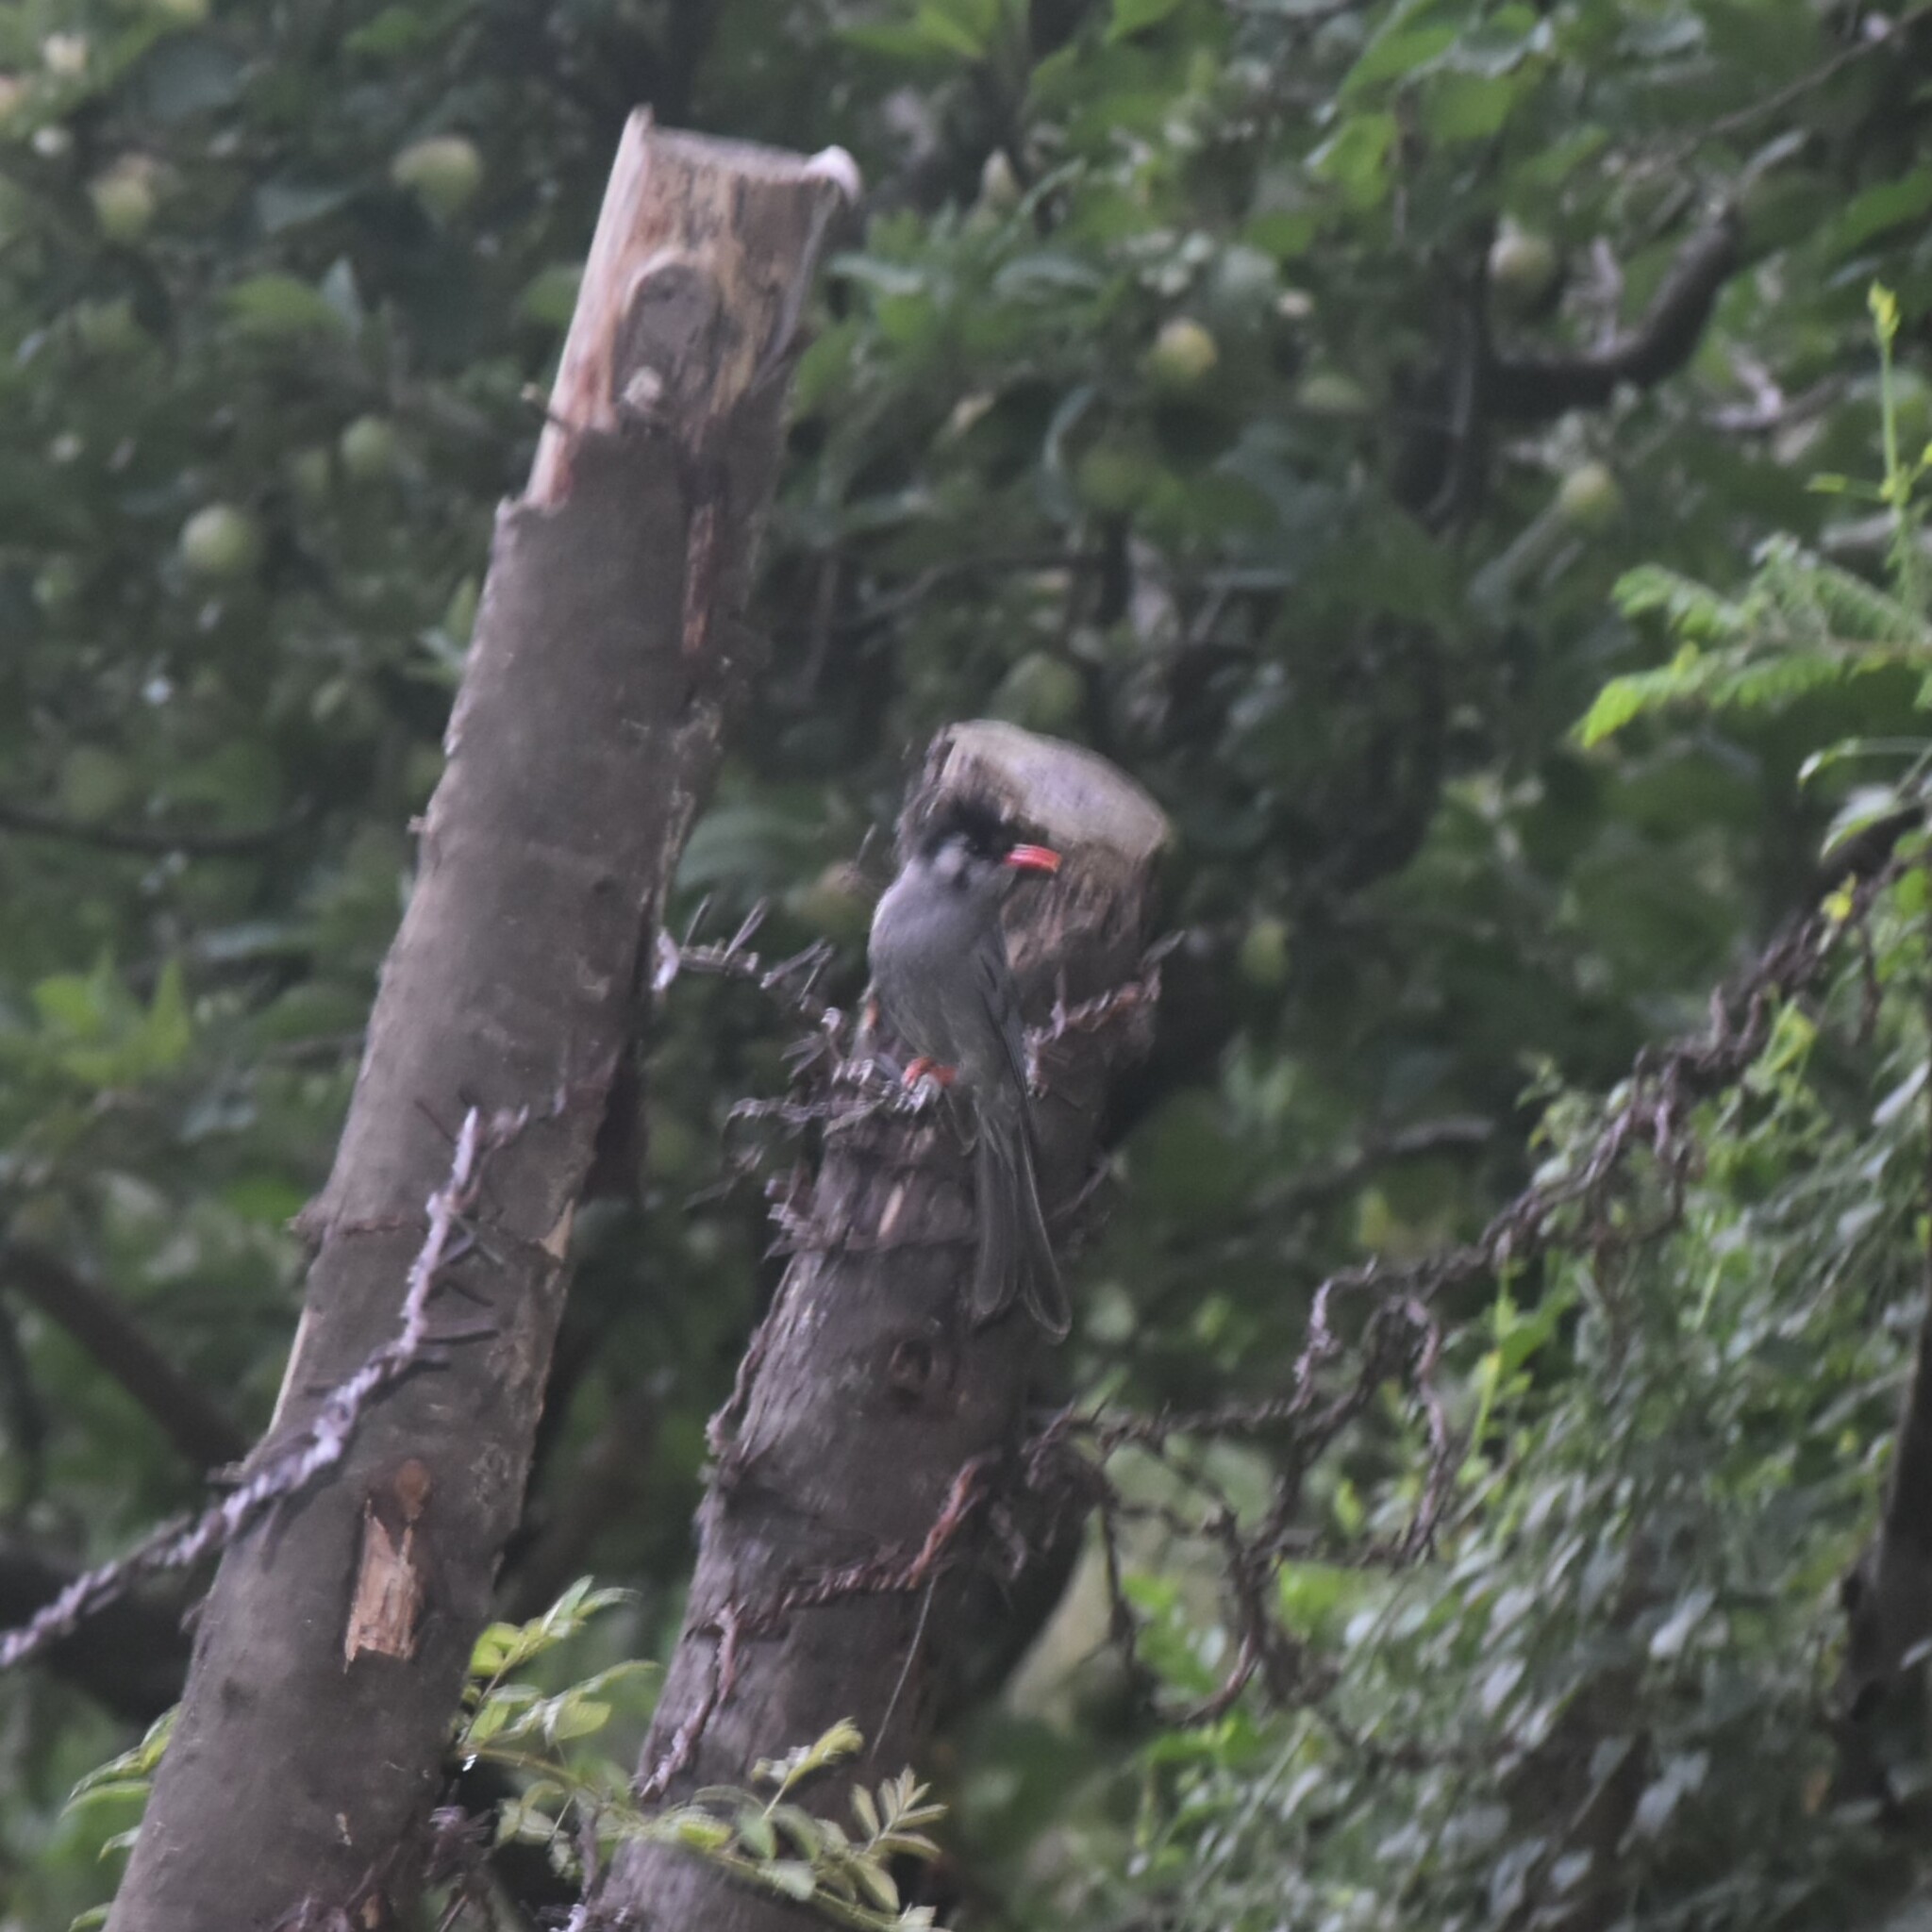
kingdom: Animalia
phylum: Chordata
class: Aves
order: Passeriformes
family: Pycnonotidae
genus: Hypsipetes
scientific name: Hypsipetes leucocephalus
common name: Black bulbul
